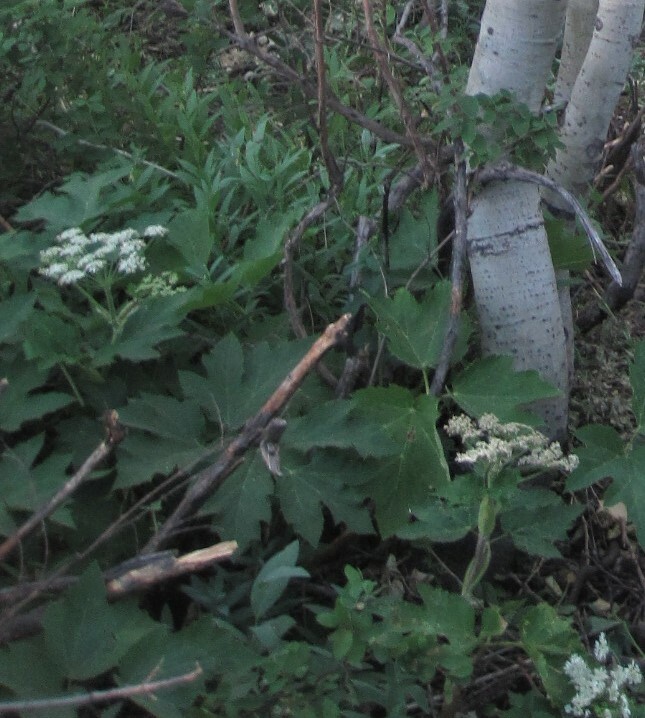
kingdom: Plantae
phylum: Tracheophyta
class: Magnoliopsida
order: Apiales
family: Apiaceae
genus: Heracleum
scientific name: Heracleum maximum
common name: American cow parsnip
